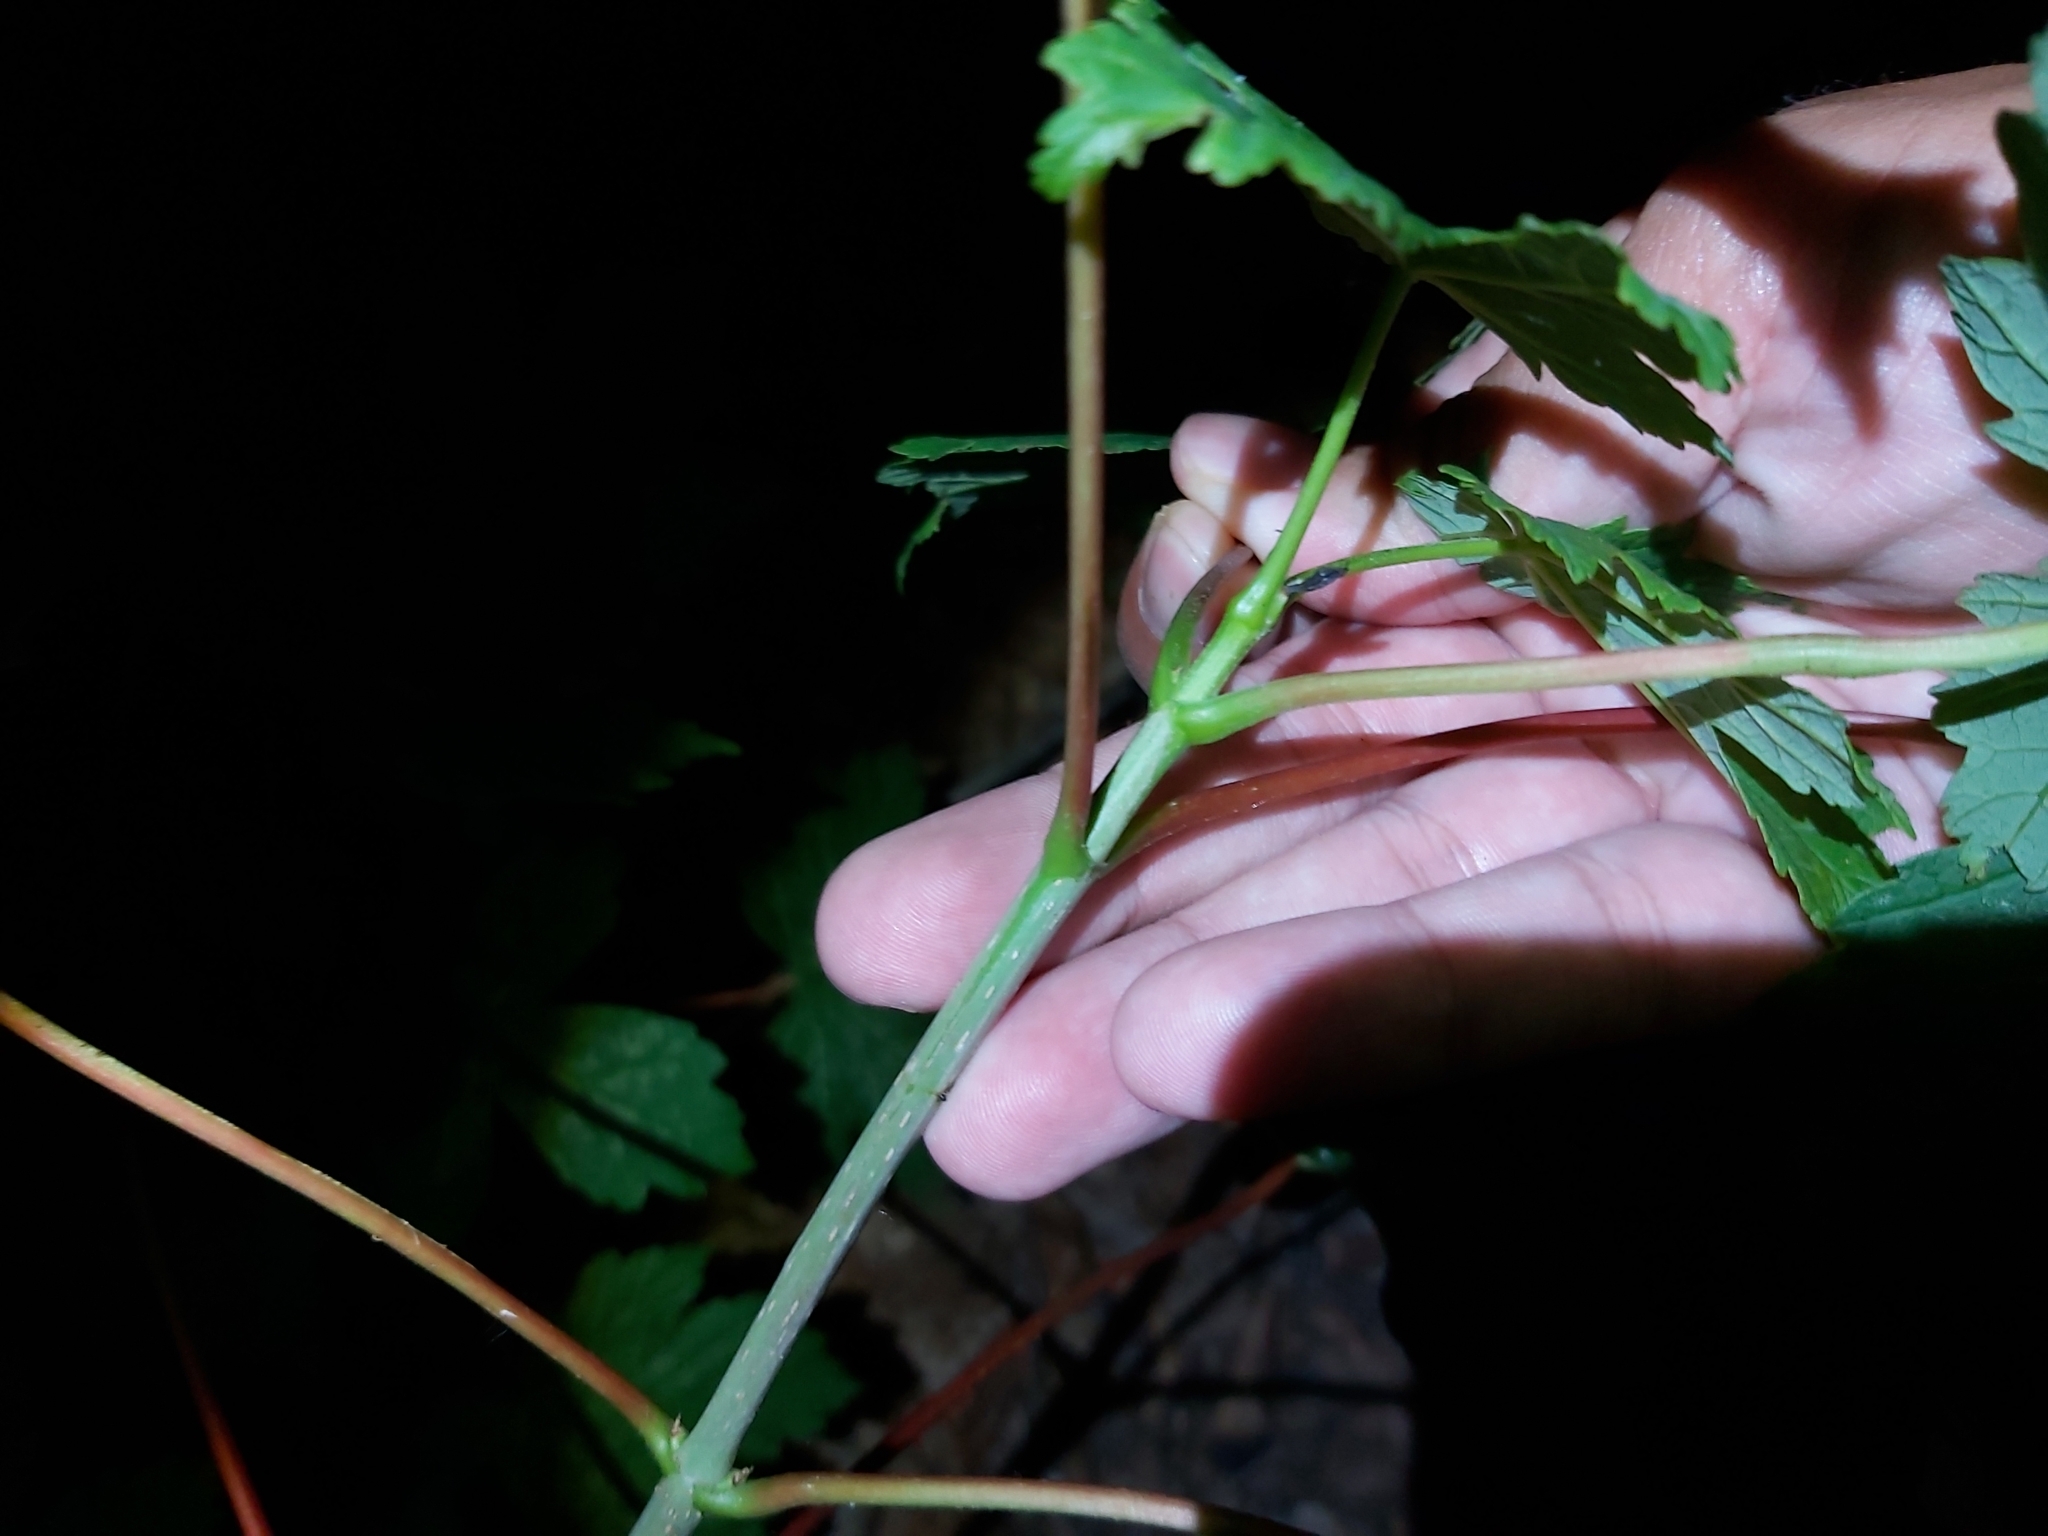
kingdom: Plantae
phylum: Tracheophyta
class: Magnoliopsida
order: Sapindales
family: Sapindaceae
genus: Acer
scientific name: Acer pseudoplatanus
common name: Sycamore
